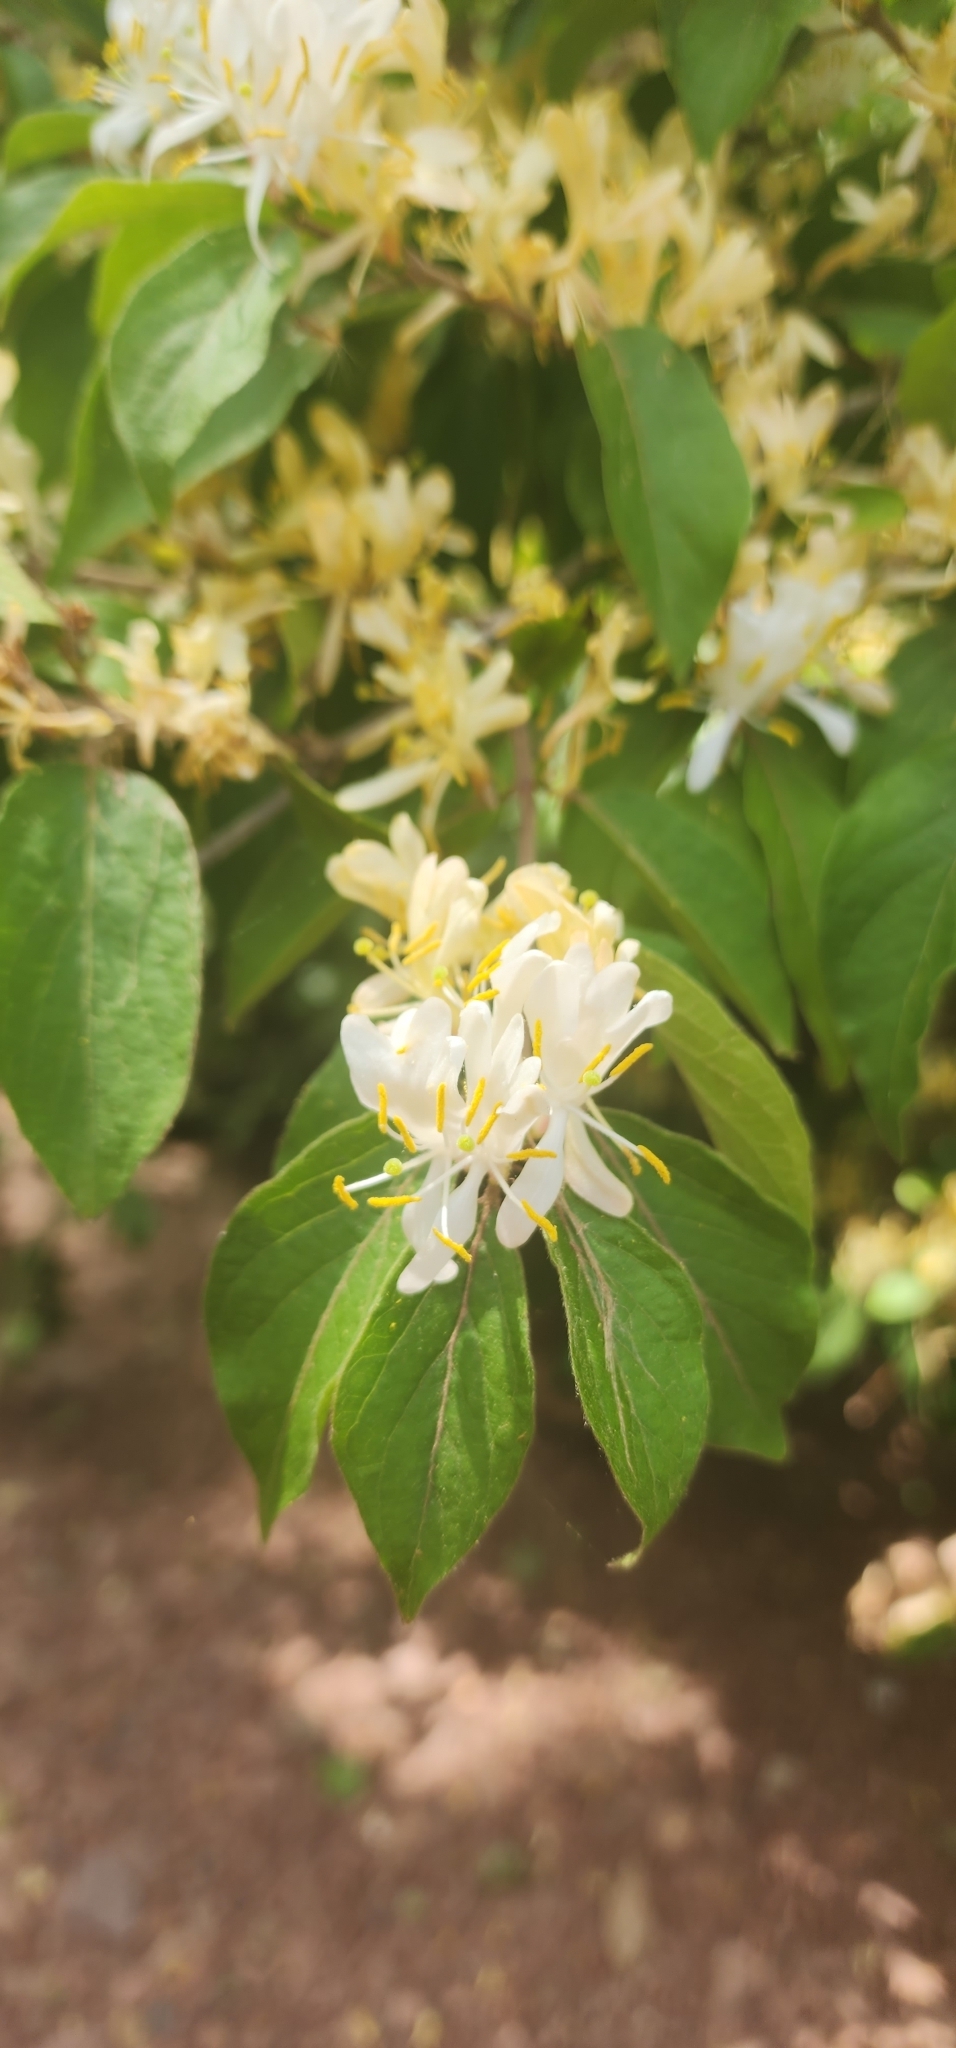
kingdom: Plantae
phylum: Tracheophyta
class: Magnoliopsida
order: Dipsacales
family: Caprifoliaceae
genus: Lonicera
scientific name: Lonicera japonica
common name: Japanese honeysuckle
